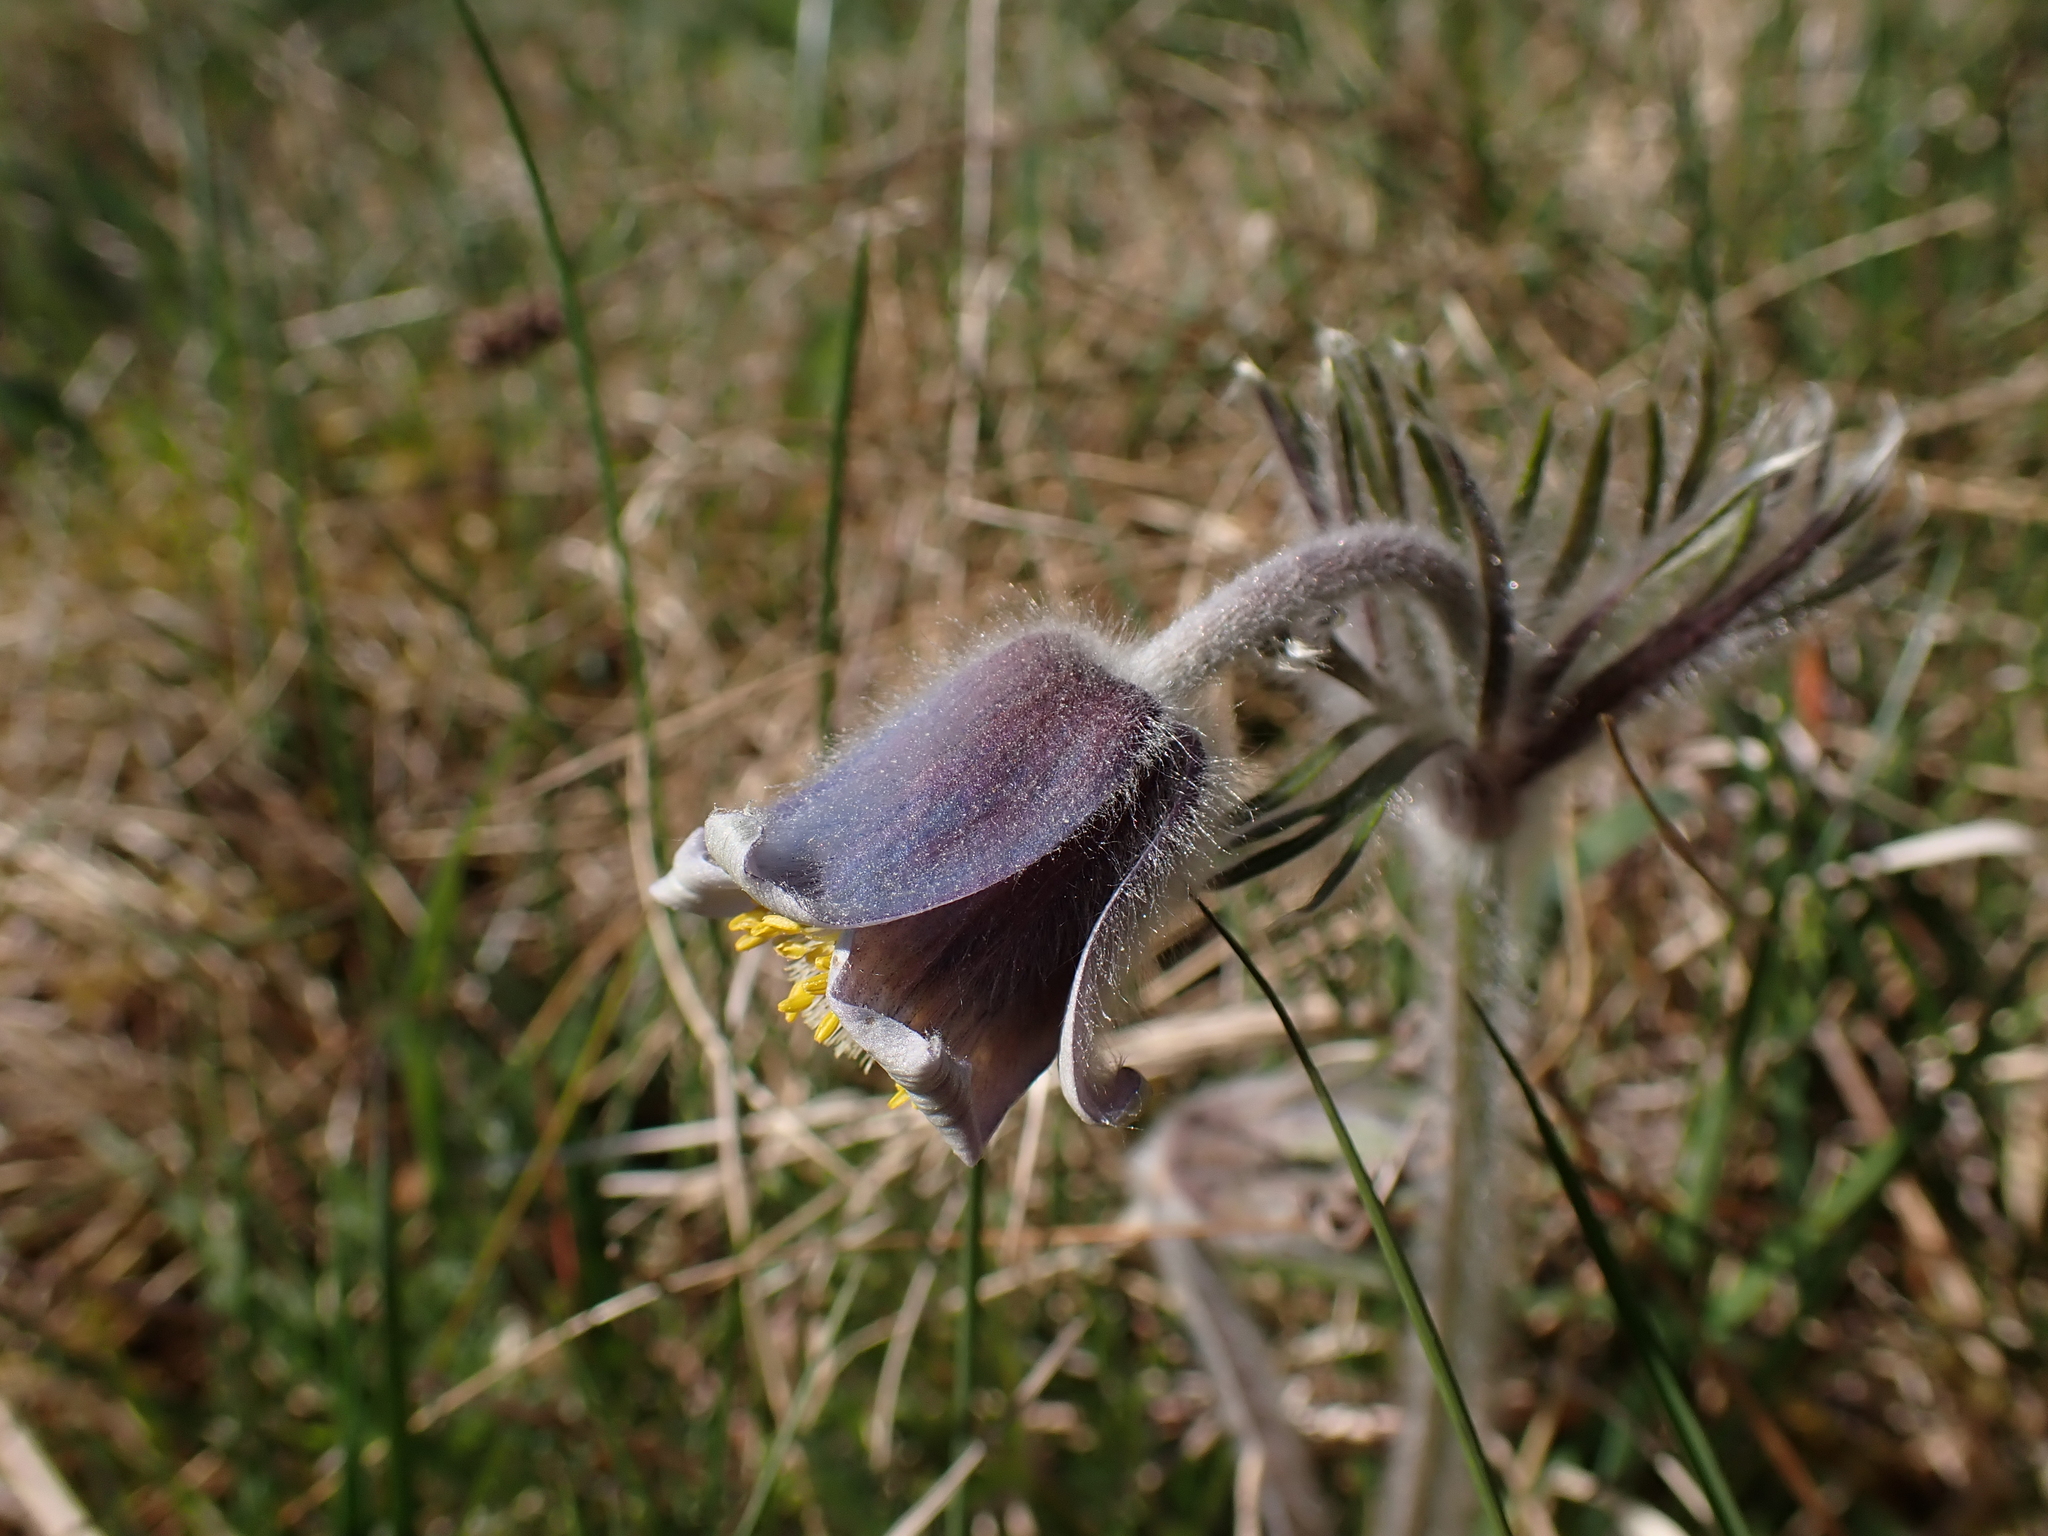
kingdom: Plantae
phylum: Tracheophyta
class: Magnoliopsida
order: Ranunculales
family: Ranunculaceae
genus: Pulsatilla
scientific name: Pulsatilla pratensis
